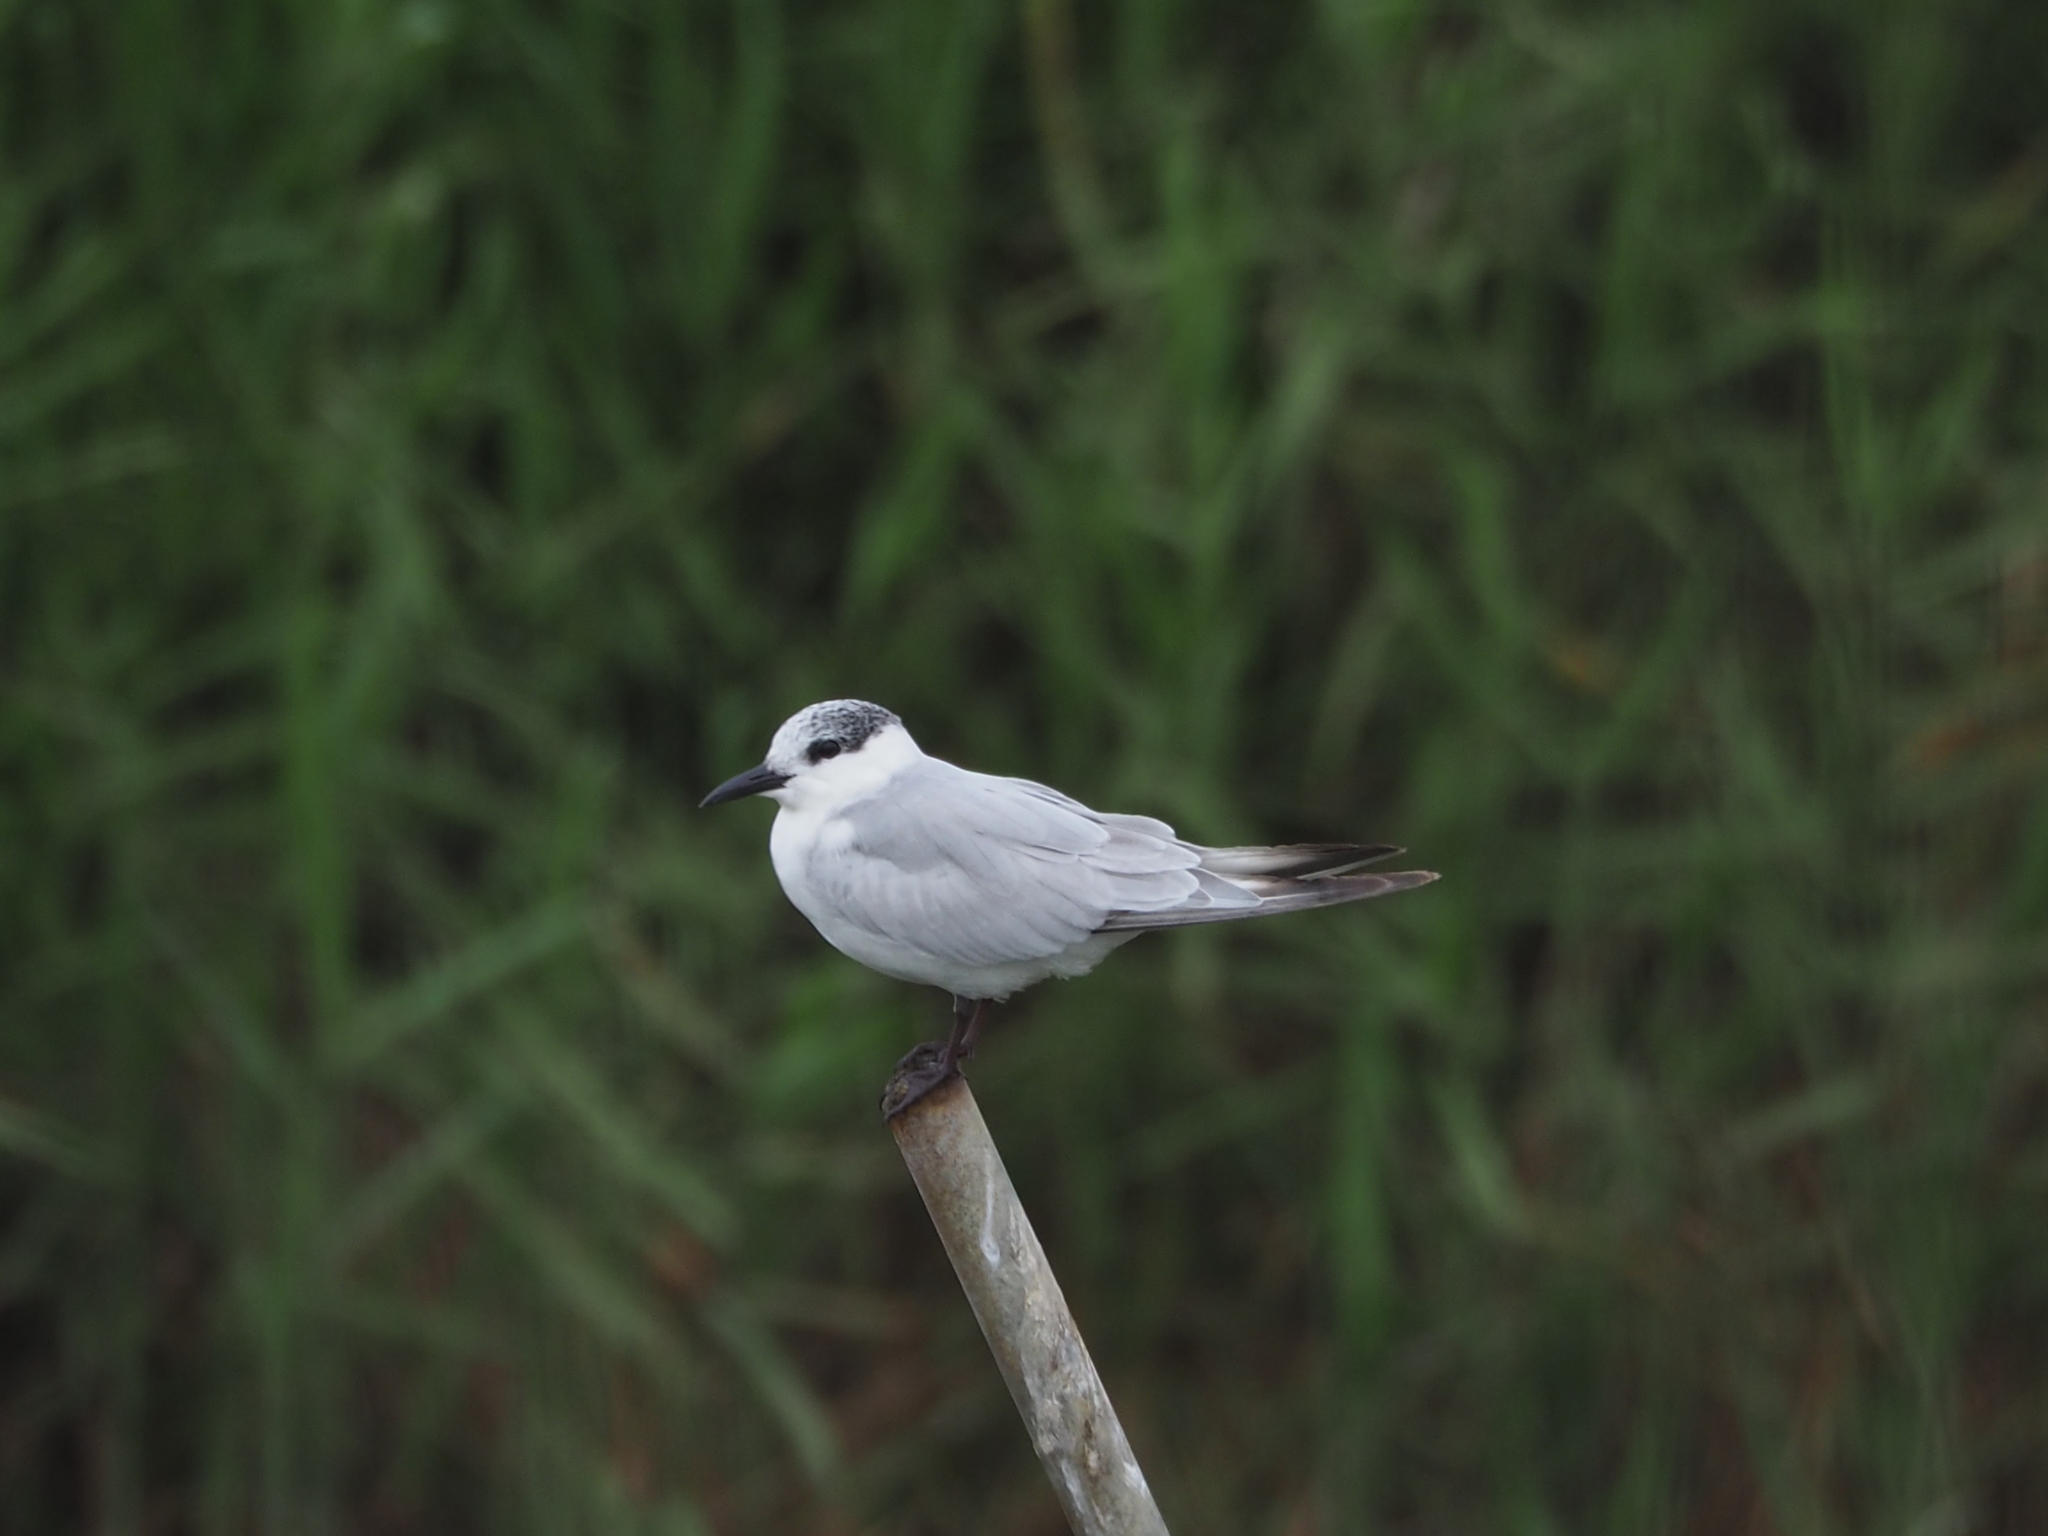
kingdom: Animalia
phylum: Chordata
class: Aves
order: Charadriiformes
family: Laridae
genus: Chlidonias
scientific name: Chlidonias hybrida
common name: Whiskered tern
